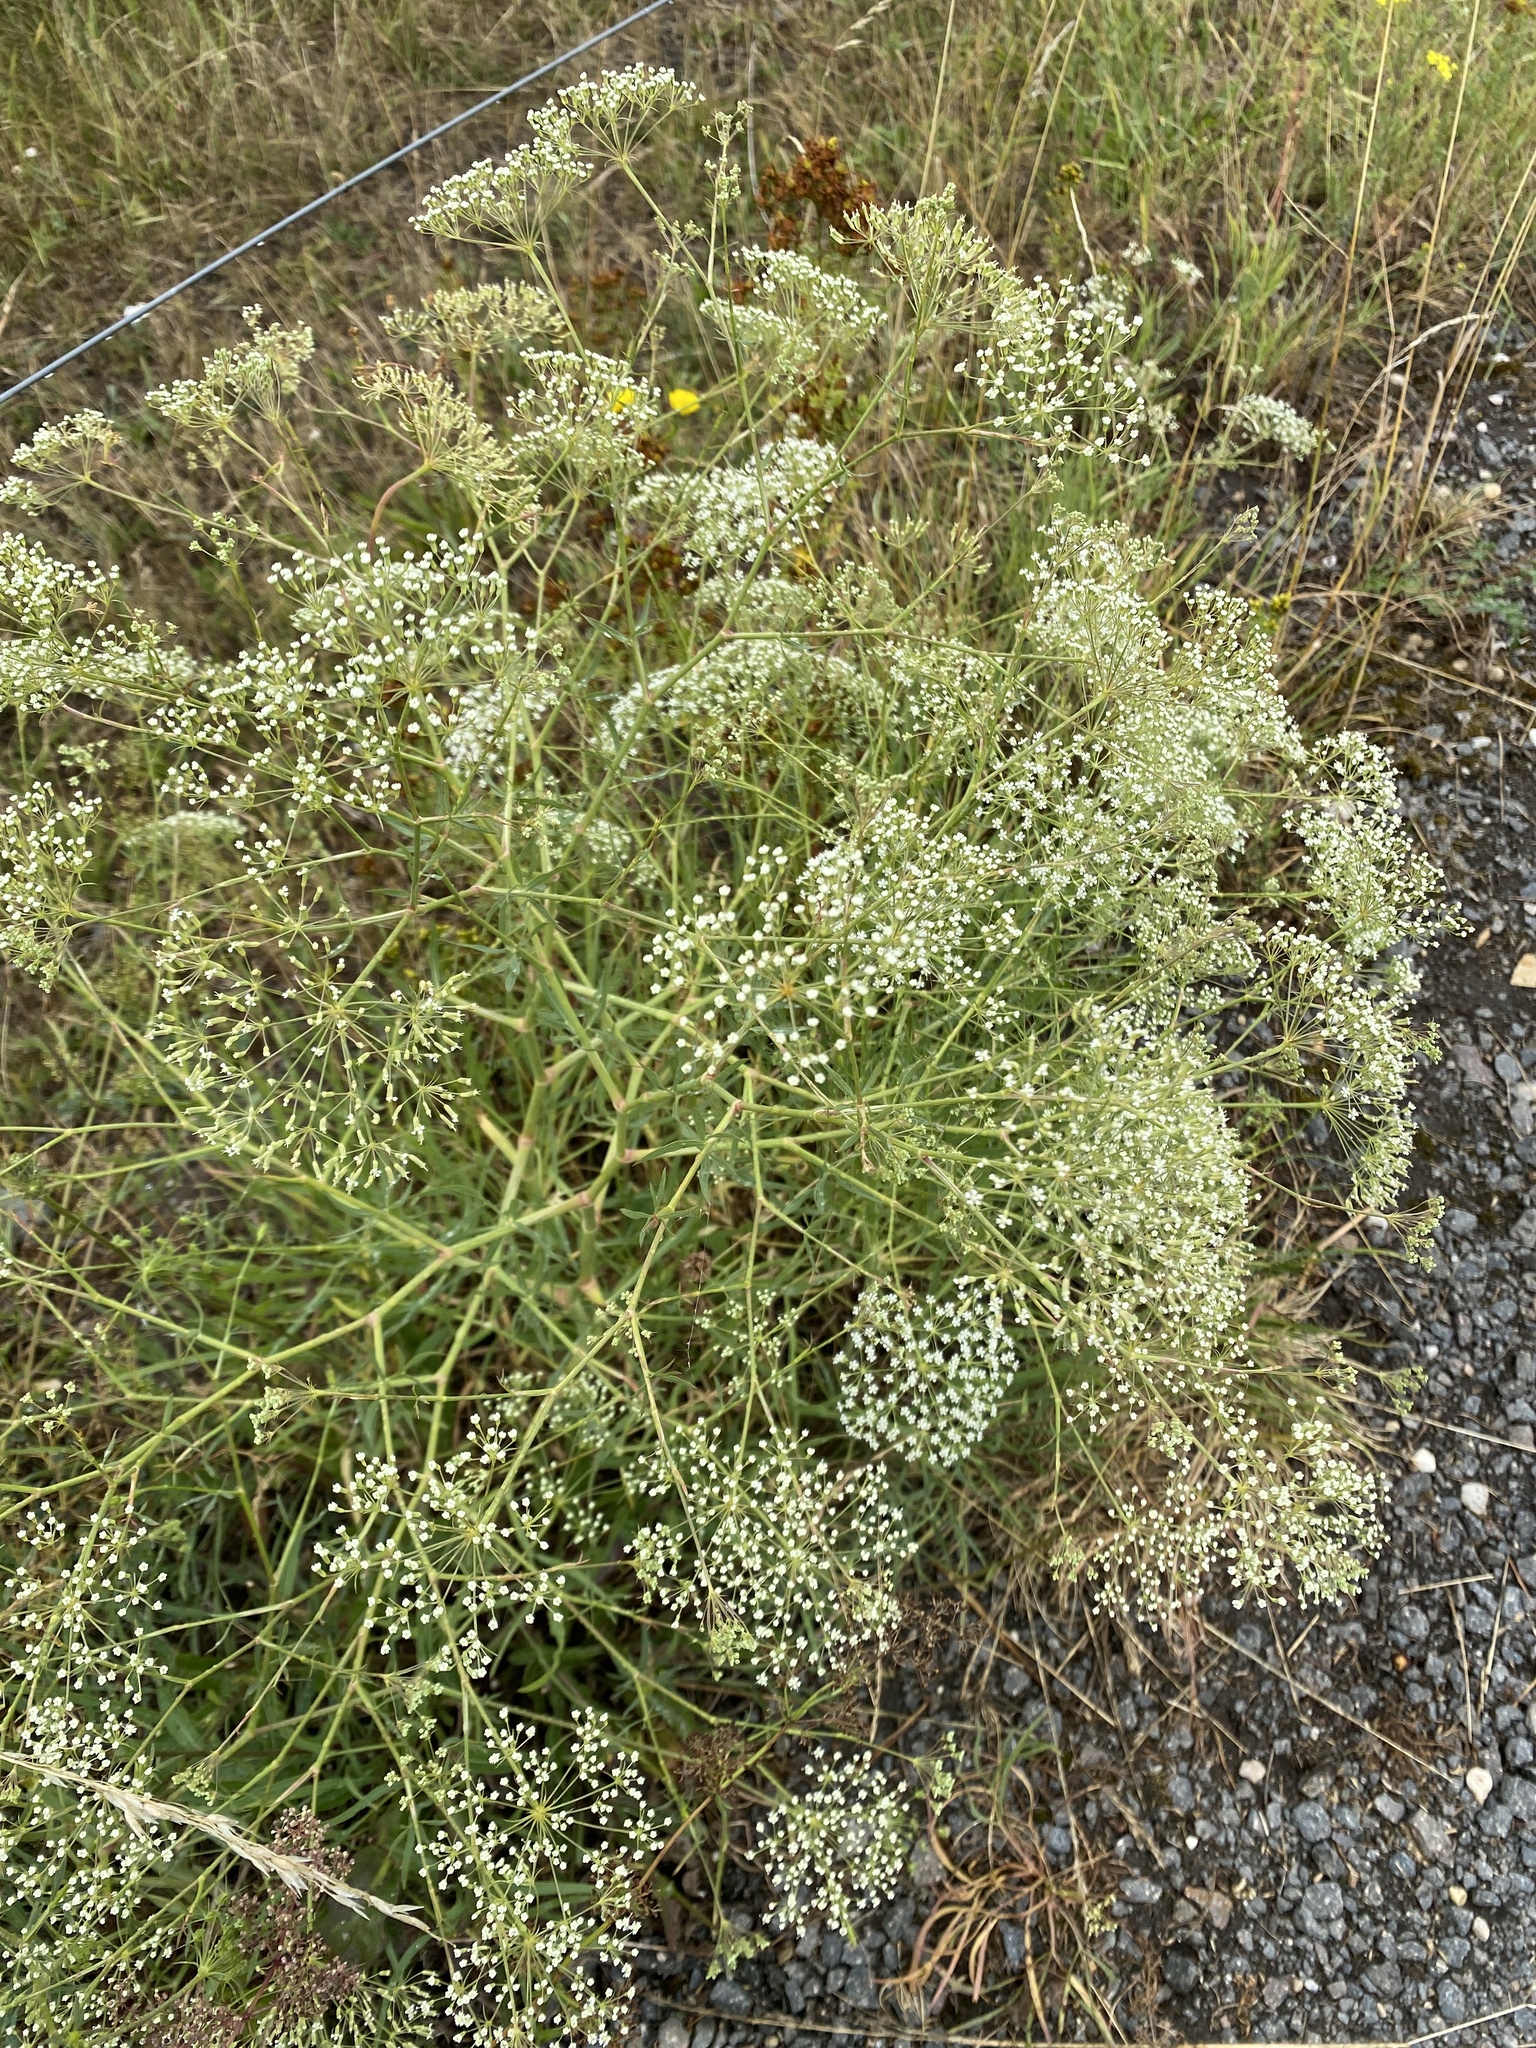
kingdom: Plantae
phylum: Tracheophyta
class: Magnoliopsida
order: Apiales
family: Apiaceae
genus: Falcaria
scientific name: Falcaria vulgaris
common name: Longleaf
